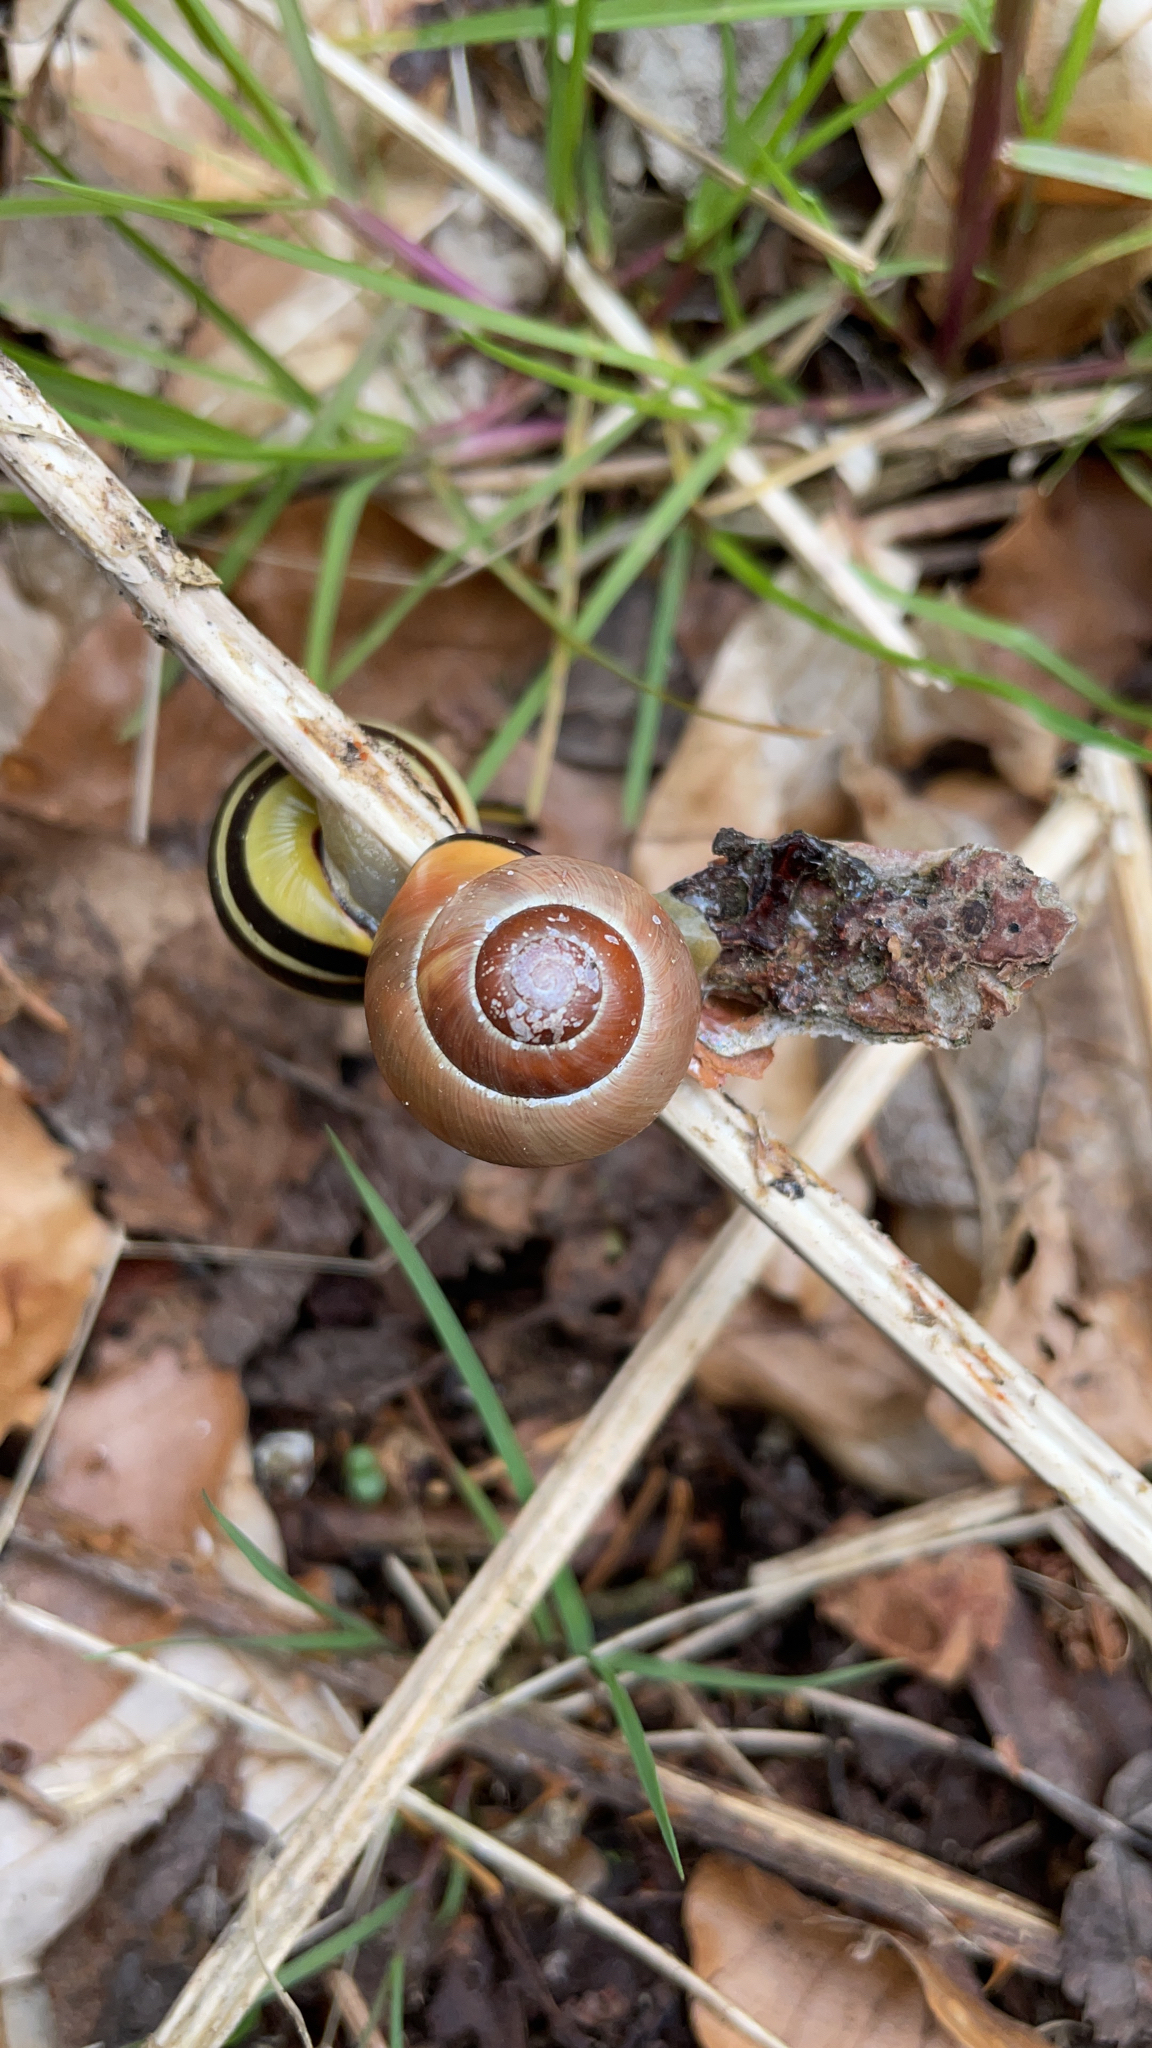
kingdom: Animalia
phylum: Mollusca
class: Gastropoda
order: Stylommatophora
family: Helicidae
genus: Cepaea
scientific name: Cepaea nemoralis
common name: Grovesnail
